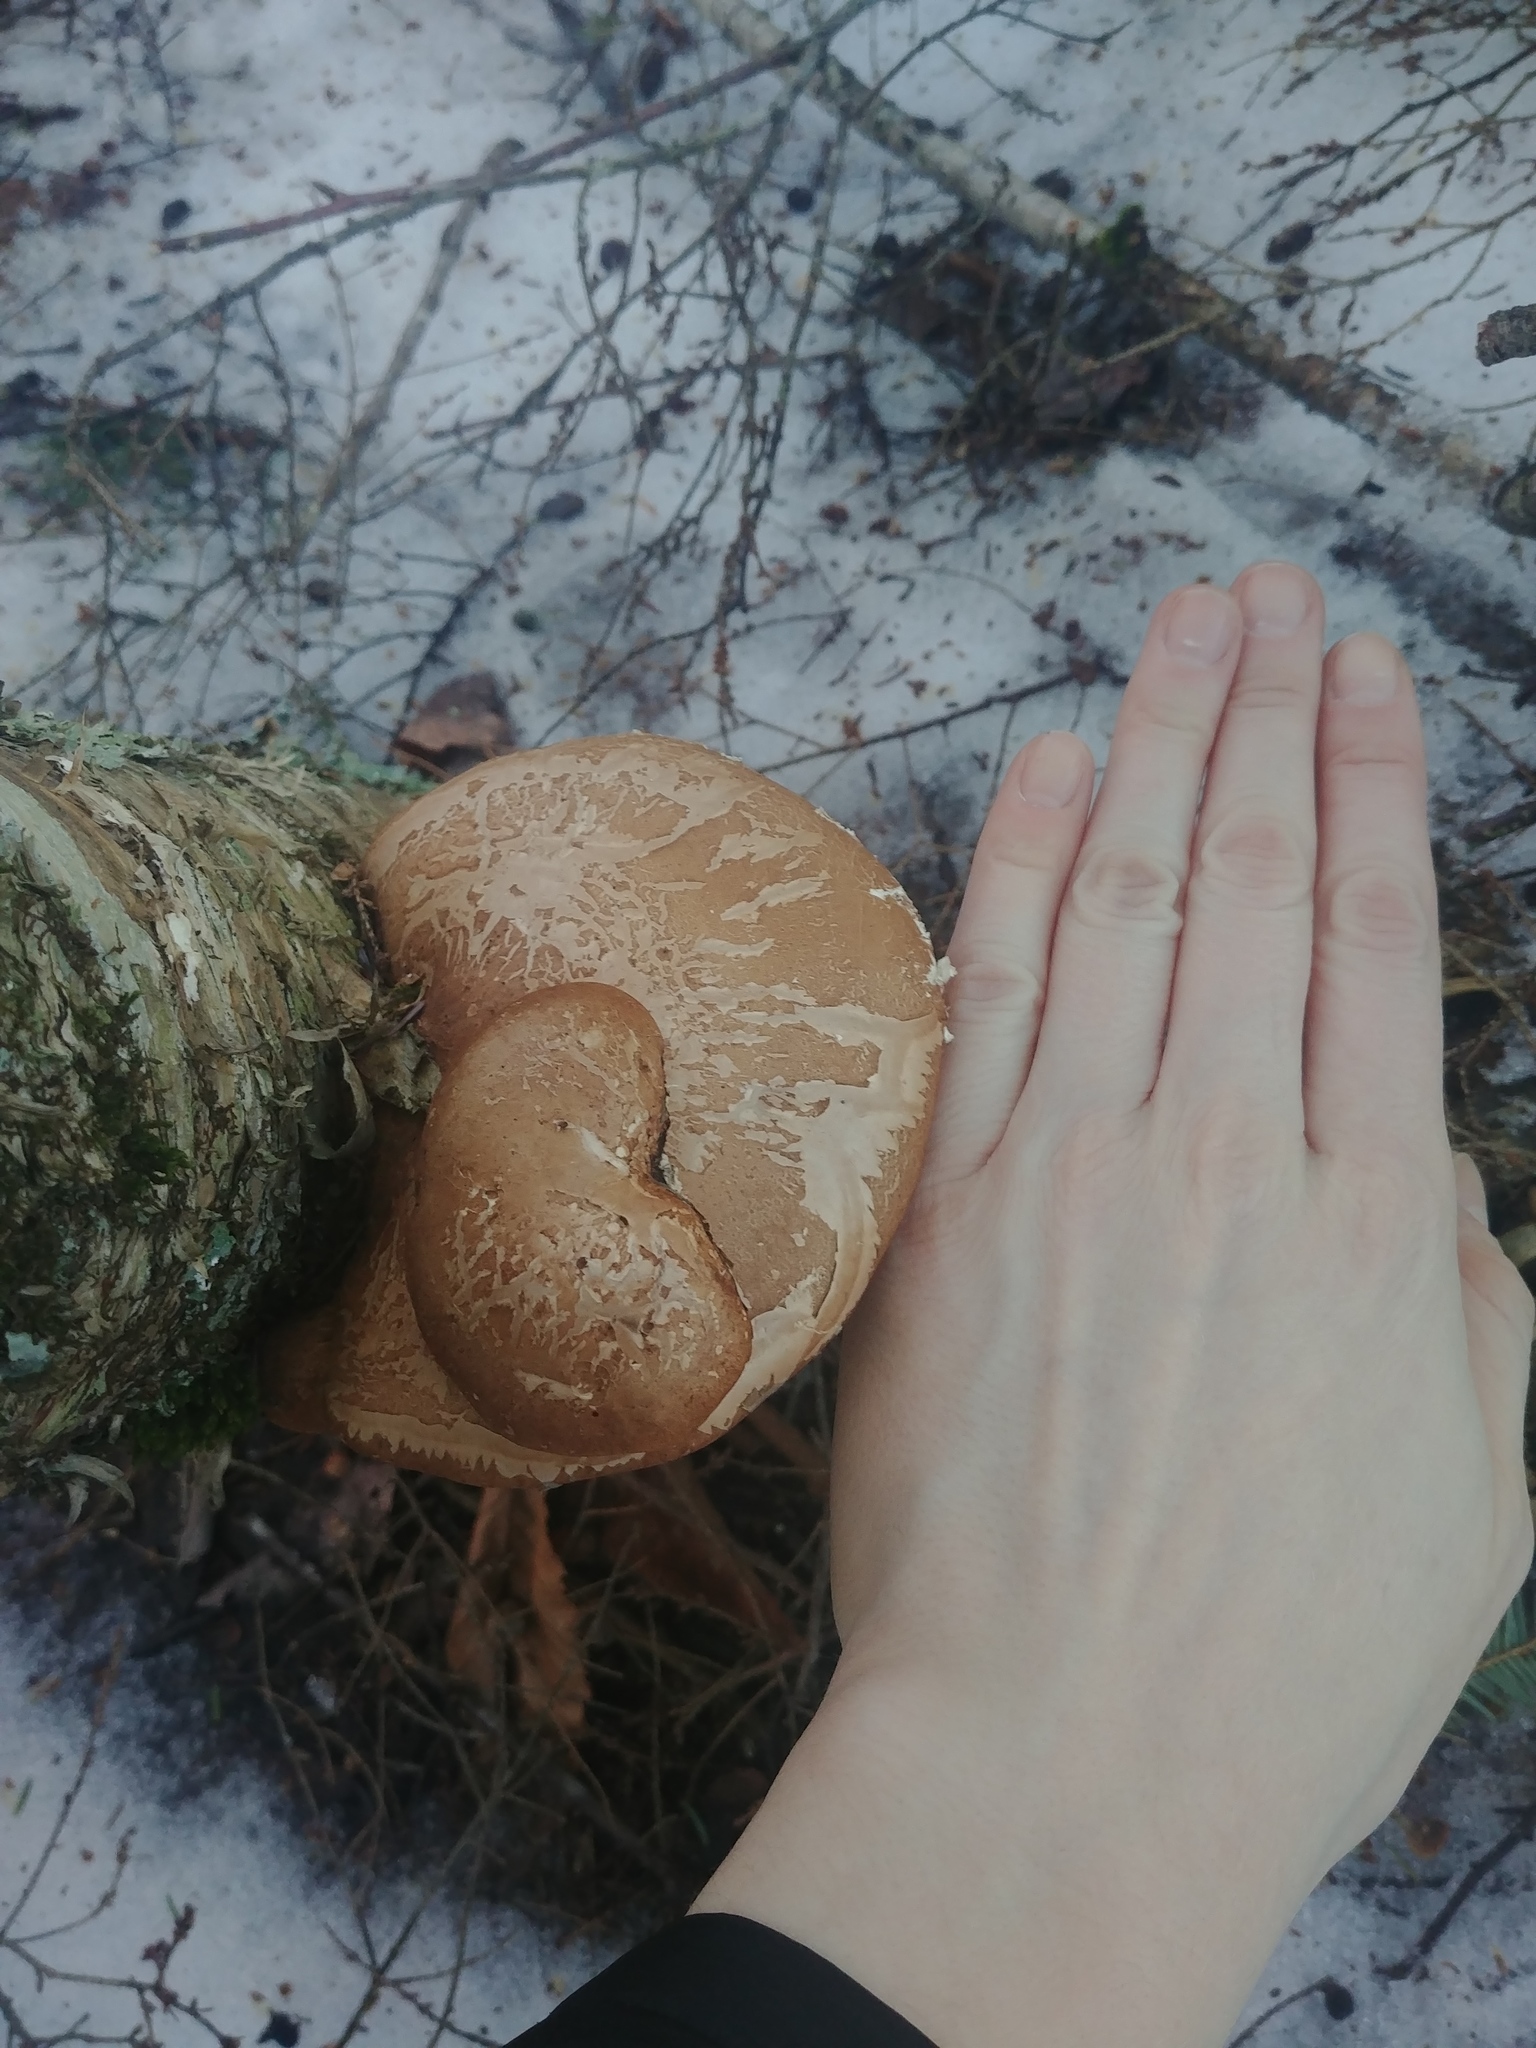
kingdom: Fungi
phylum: Basidiomycota
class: Agaricomycetes
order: Polyporales
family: Fomitopsidaceae
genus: Fomitopsis
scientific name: Fomitopsis betulina
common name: Birch polypore
